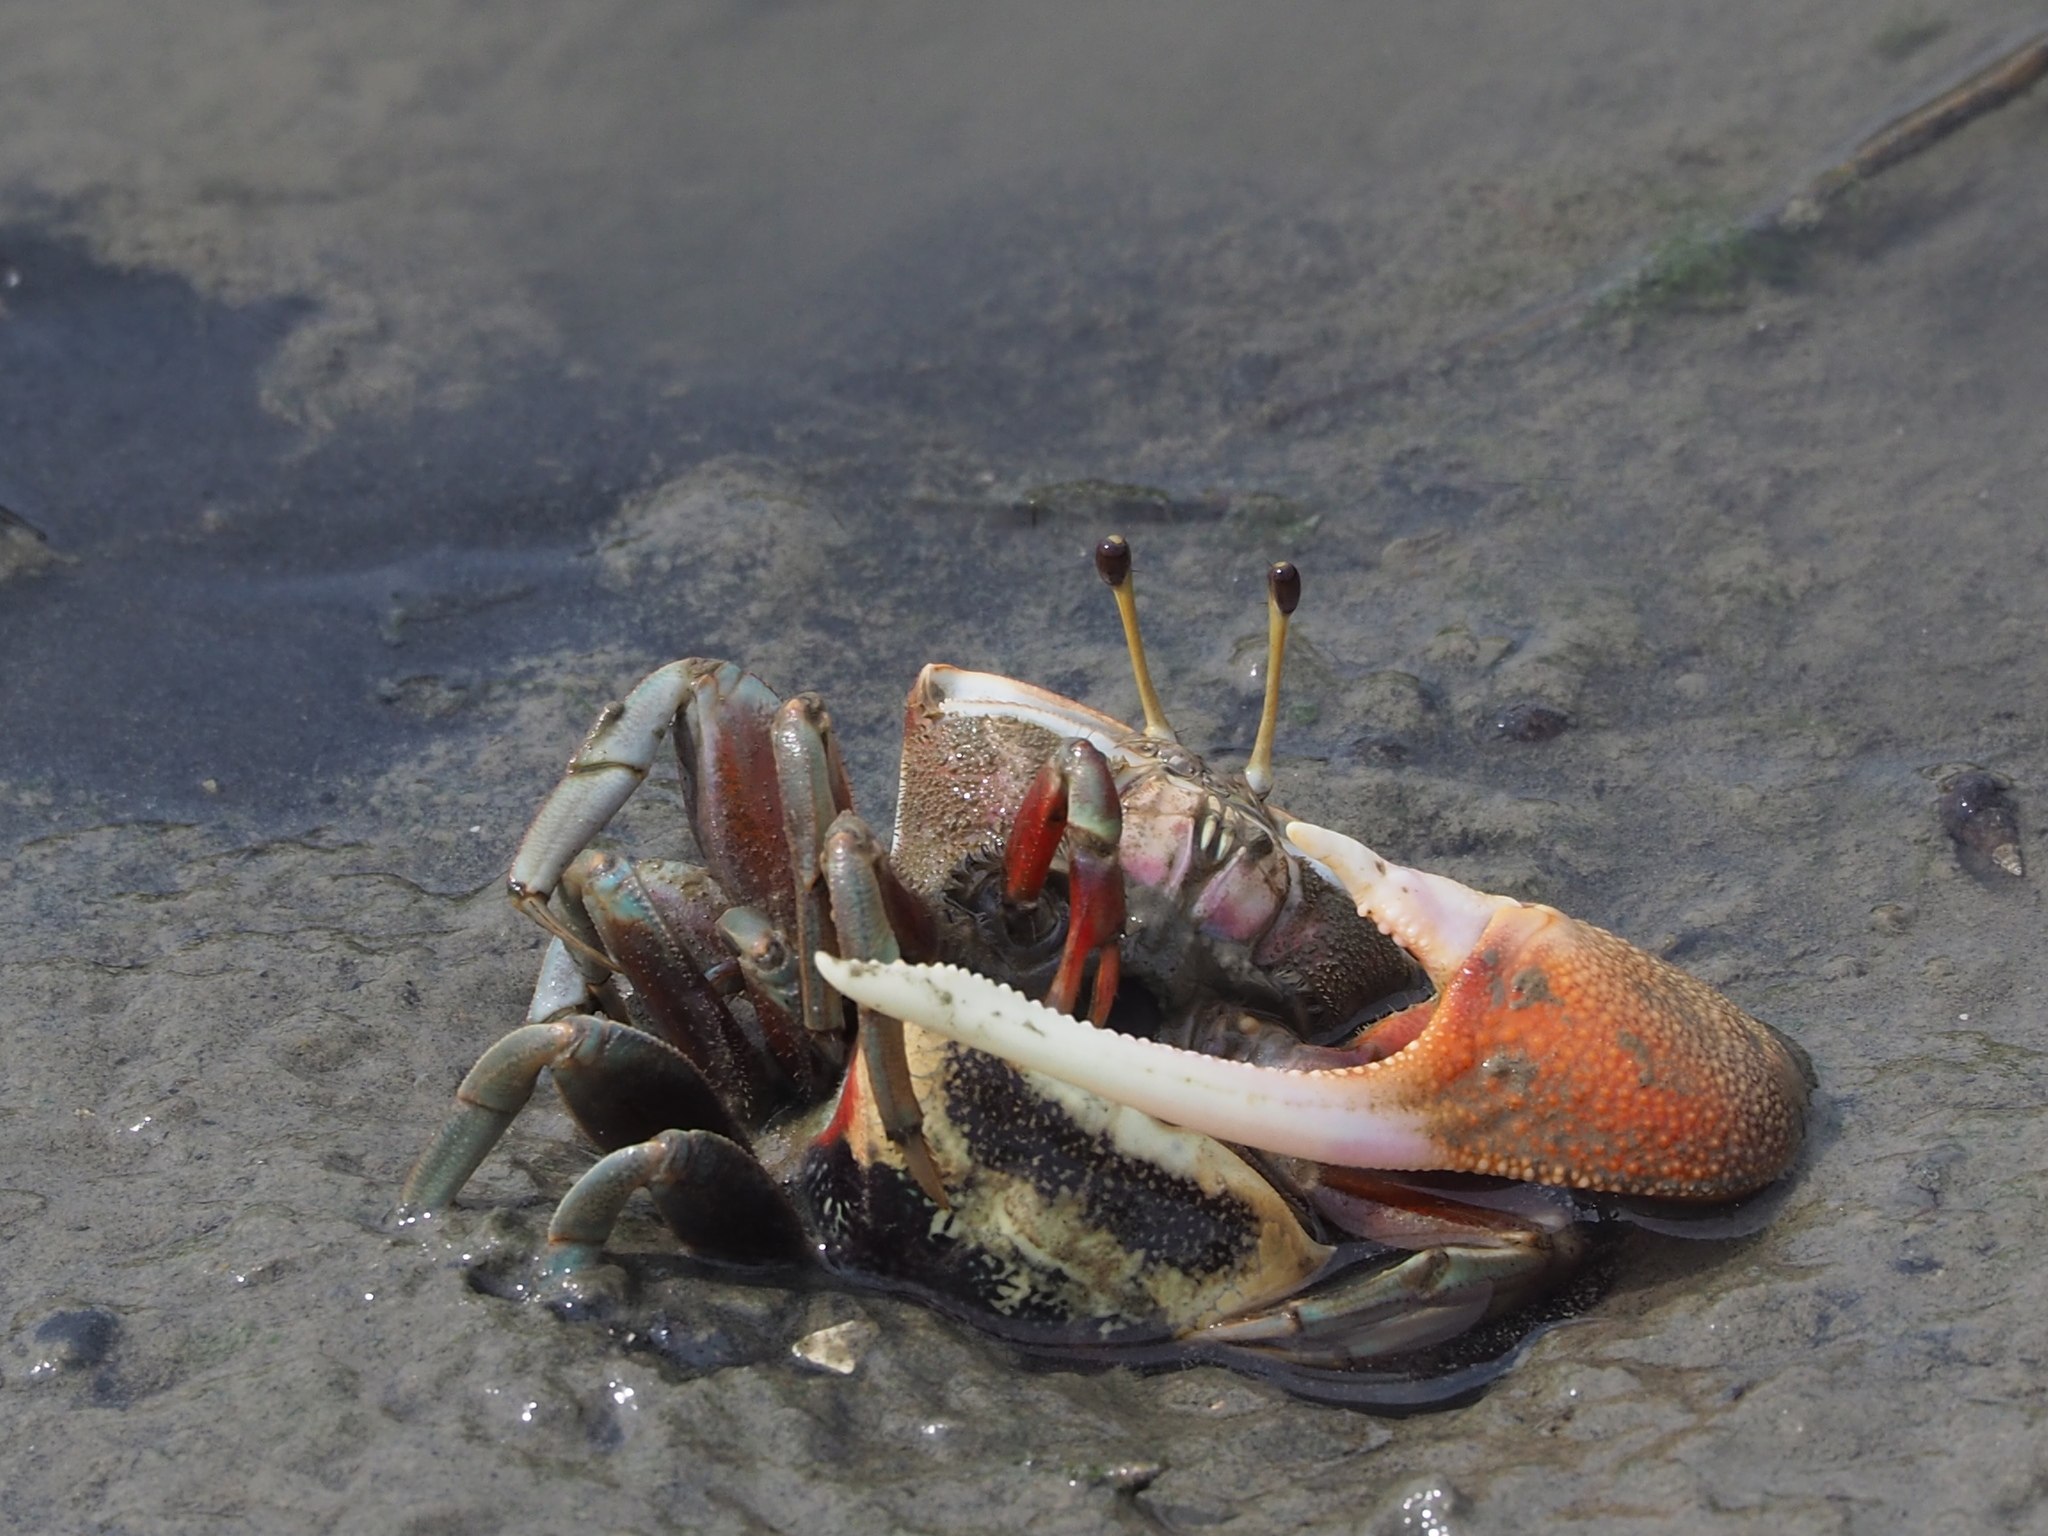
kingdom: Animalia
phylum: Arthropoda
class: Malacostraca
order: Decapoda
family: Ocypodidae
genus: Tubuca
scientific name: Tubuca arcuata
